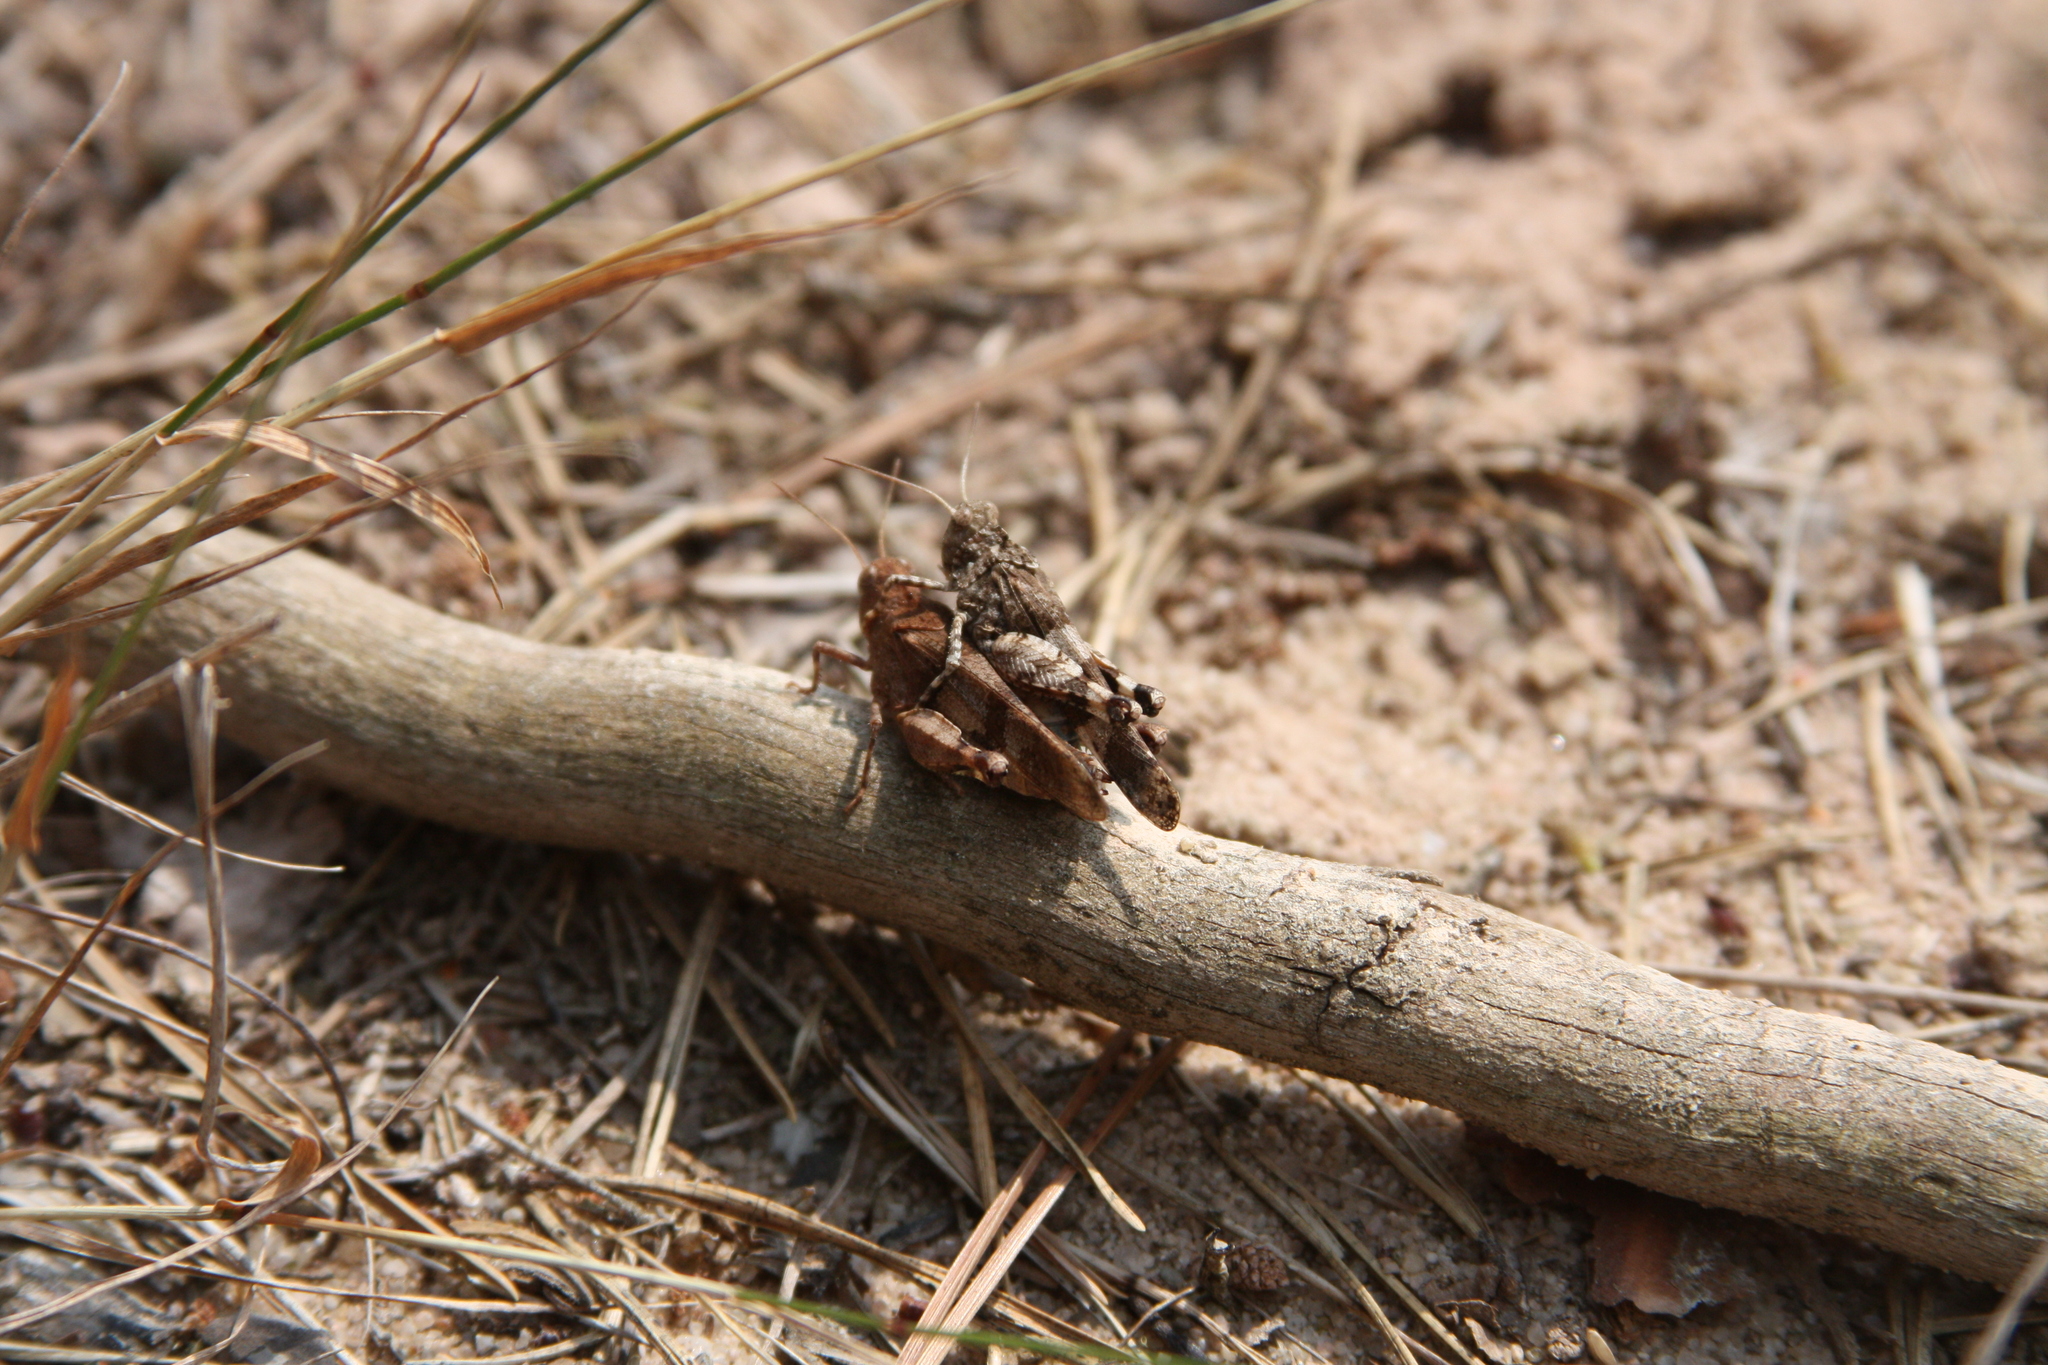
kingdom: Animalia
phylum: Arthropoda
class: Insecta
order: Orthoptera
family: Acrididae
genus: Oedipoda
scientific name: Oedipoda caerulescens
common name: Blue-winged grasshopper
